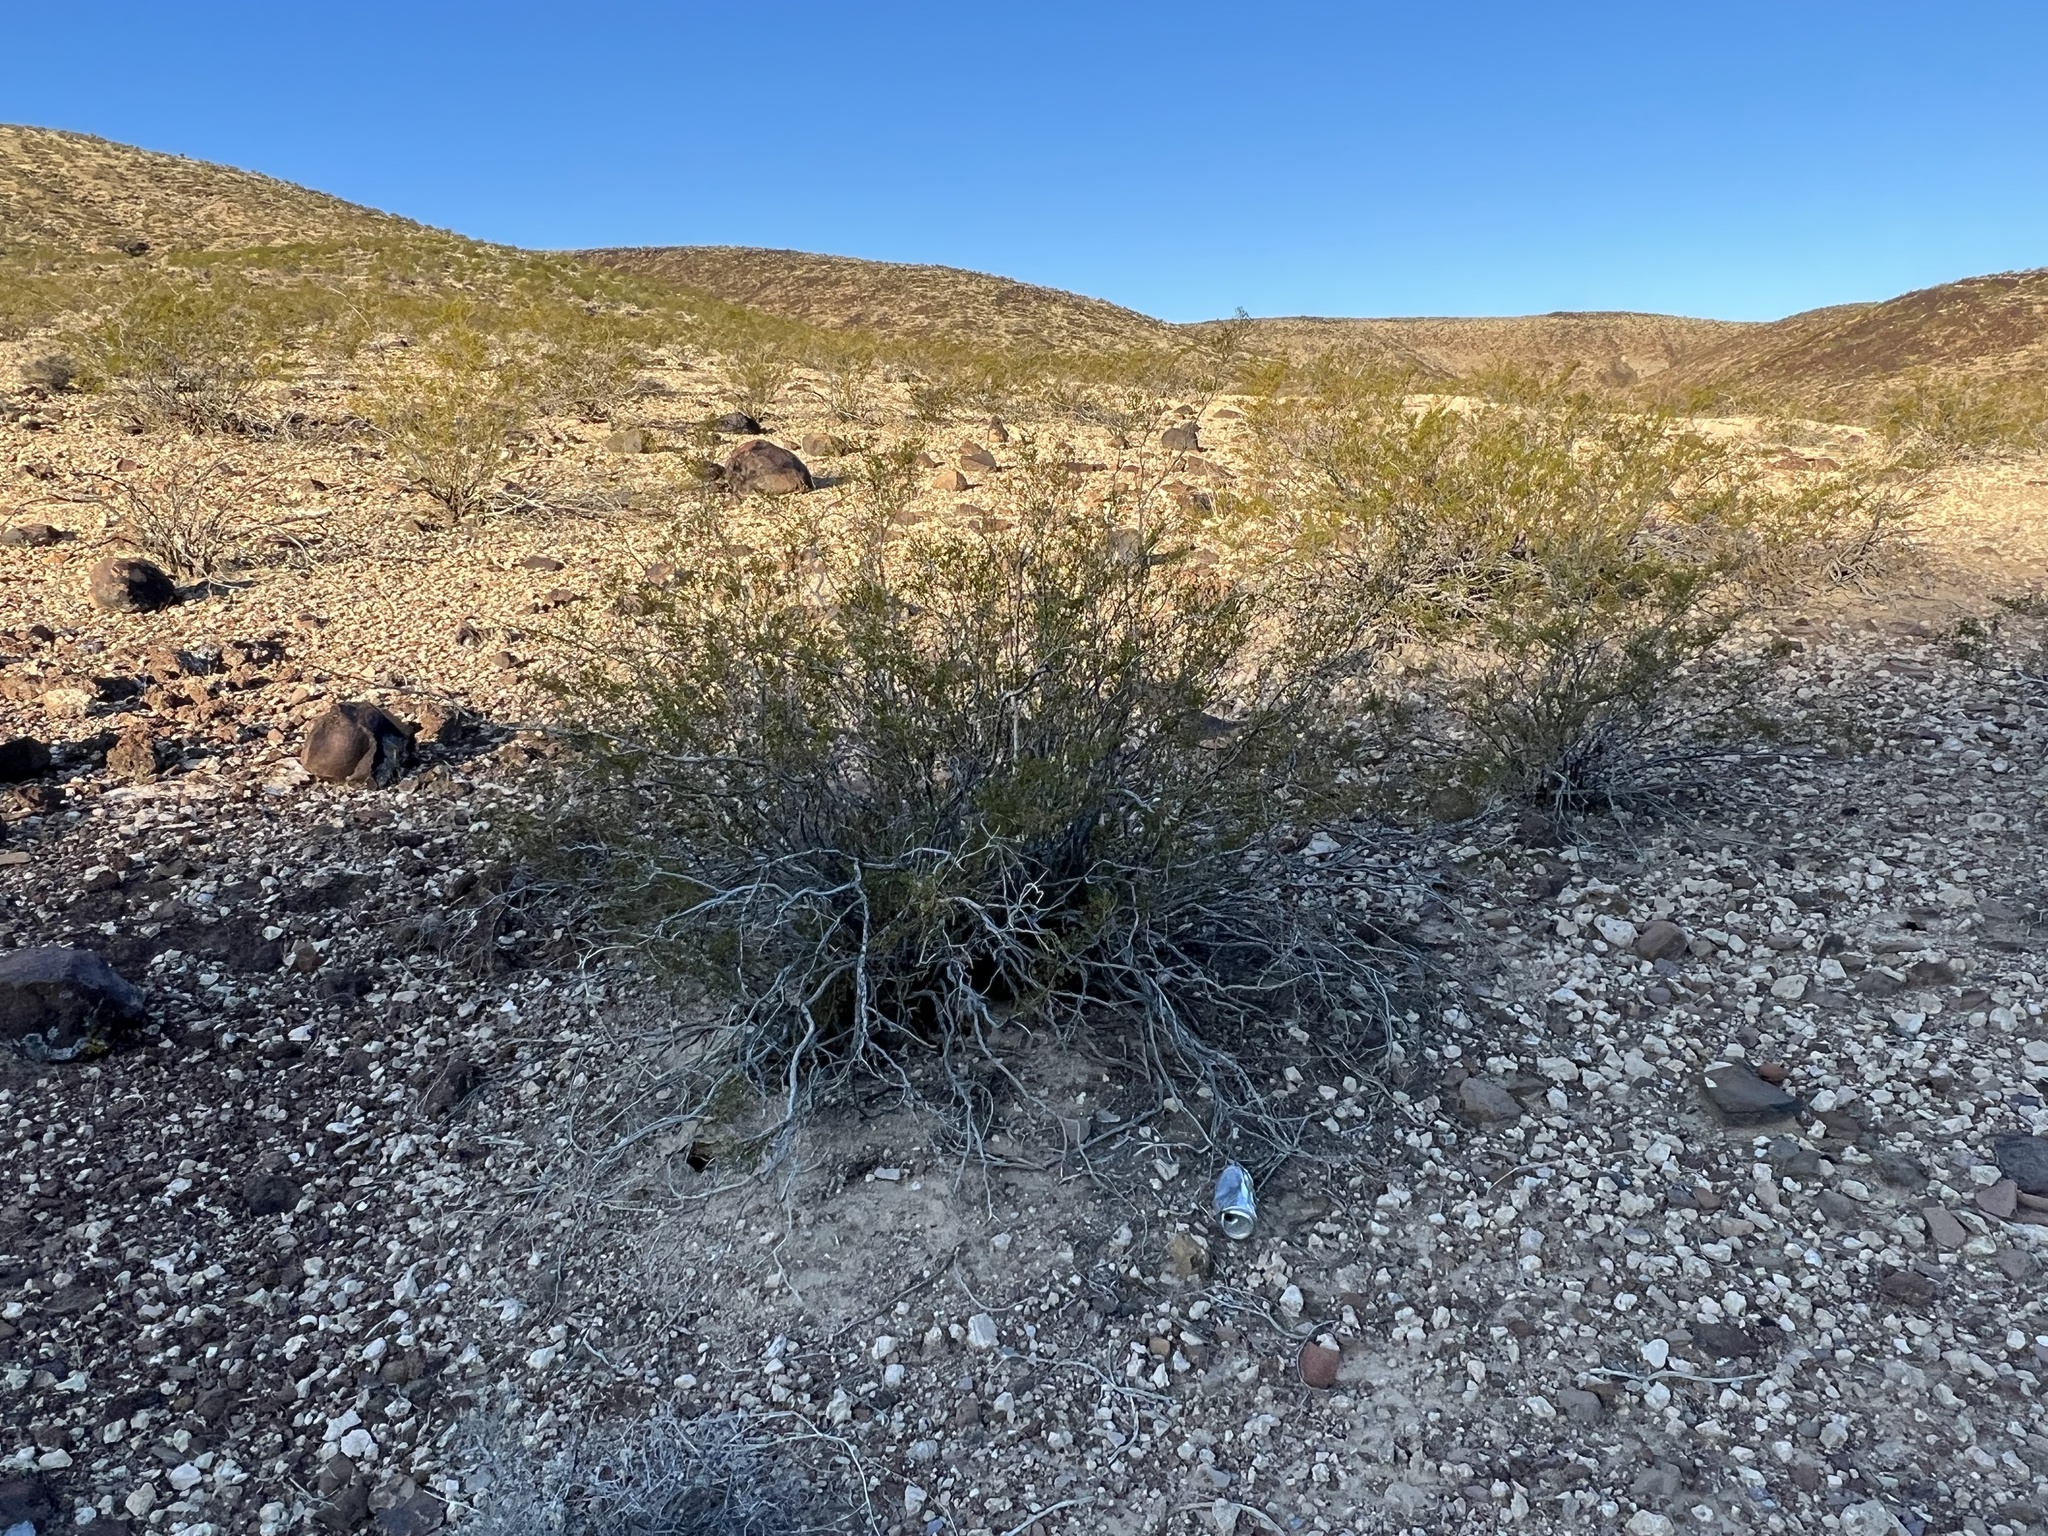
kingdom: Plantae
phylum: Tracheophyta
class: Magnoliopsida
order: Zygophyllales
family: Zygophyllaceae
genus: Larrea
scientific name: Larrea tridentata
